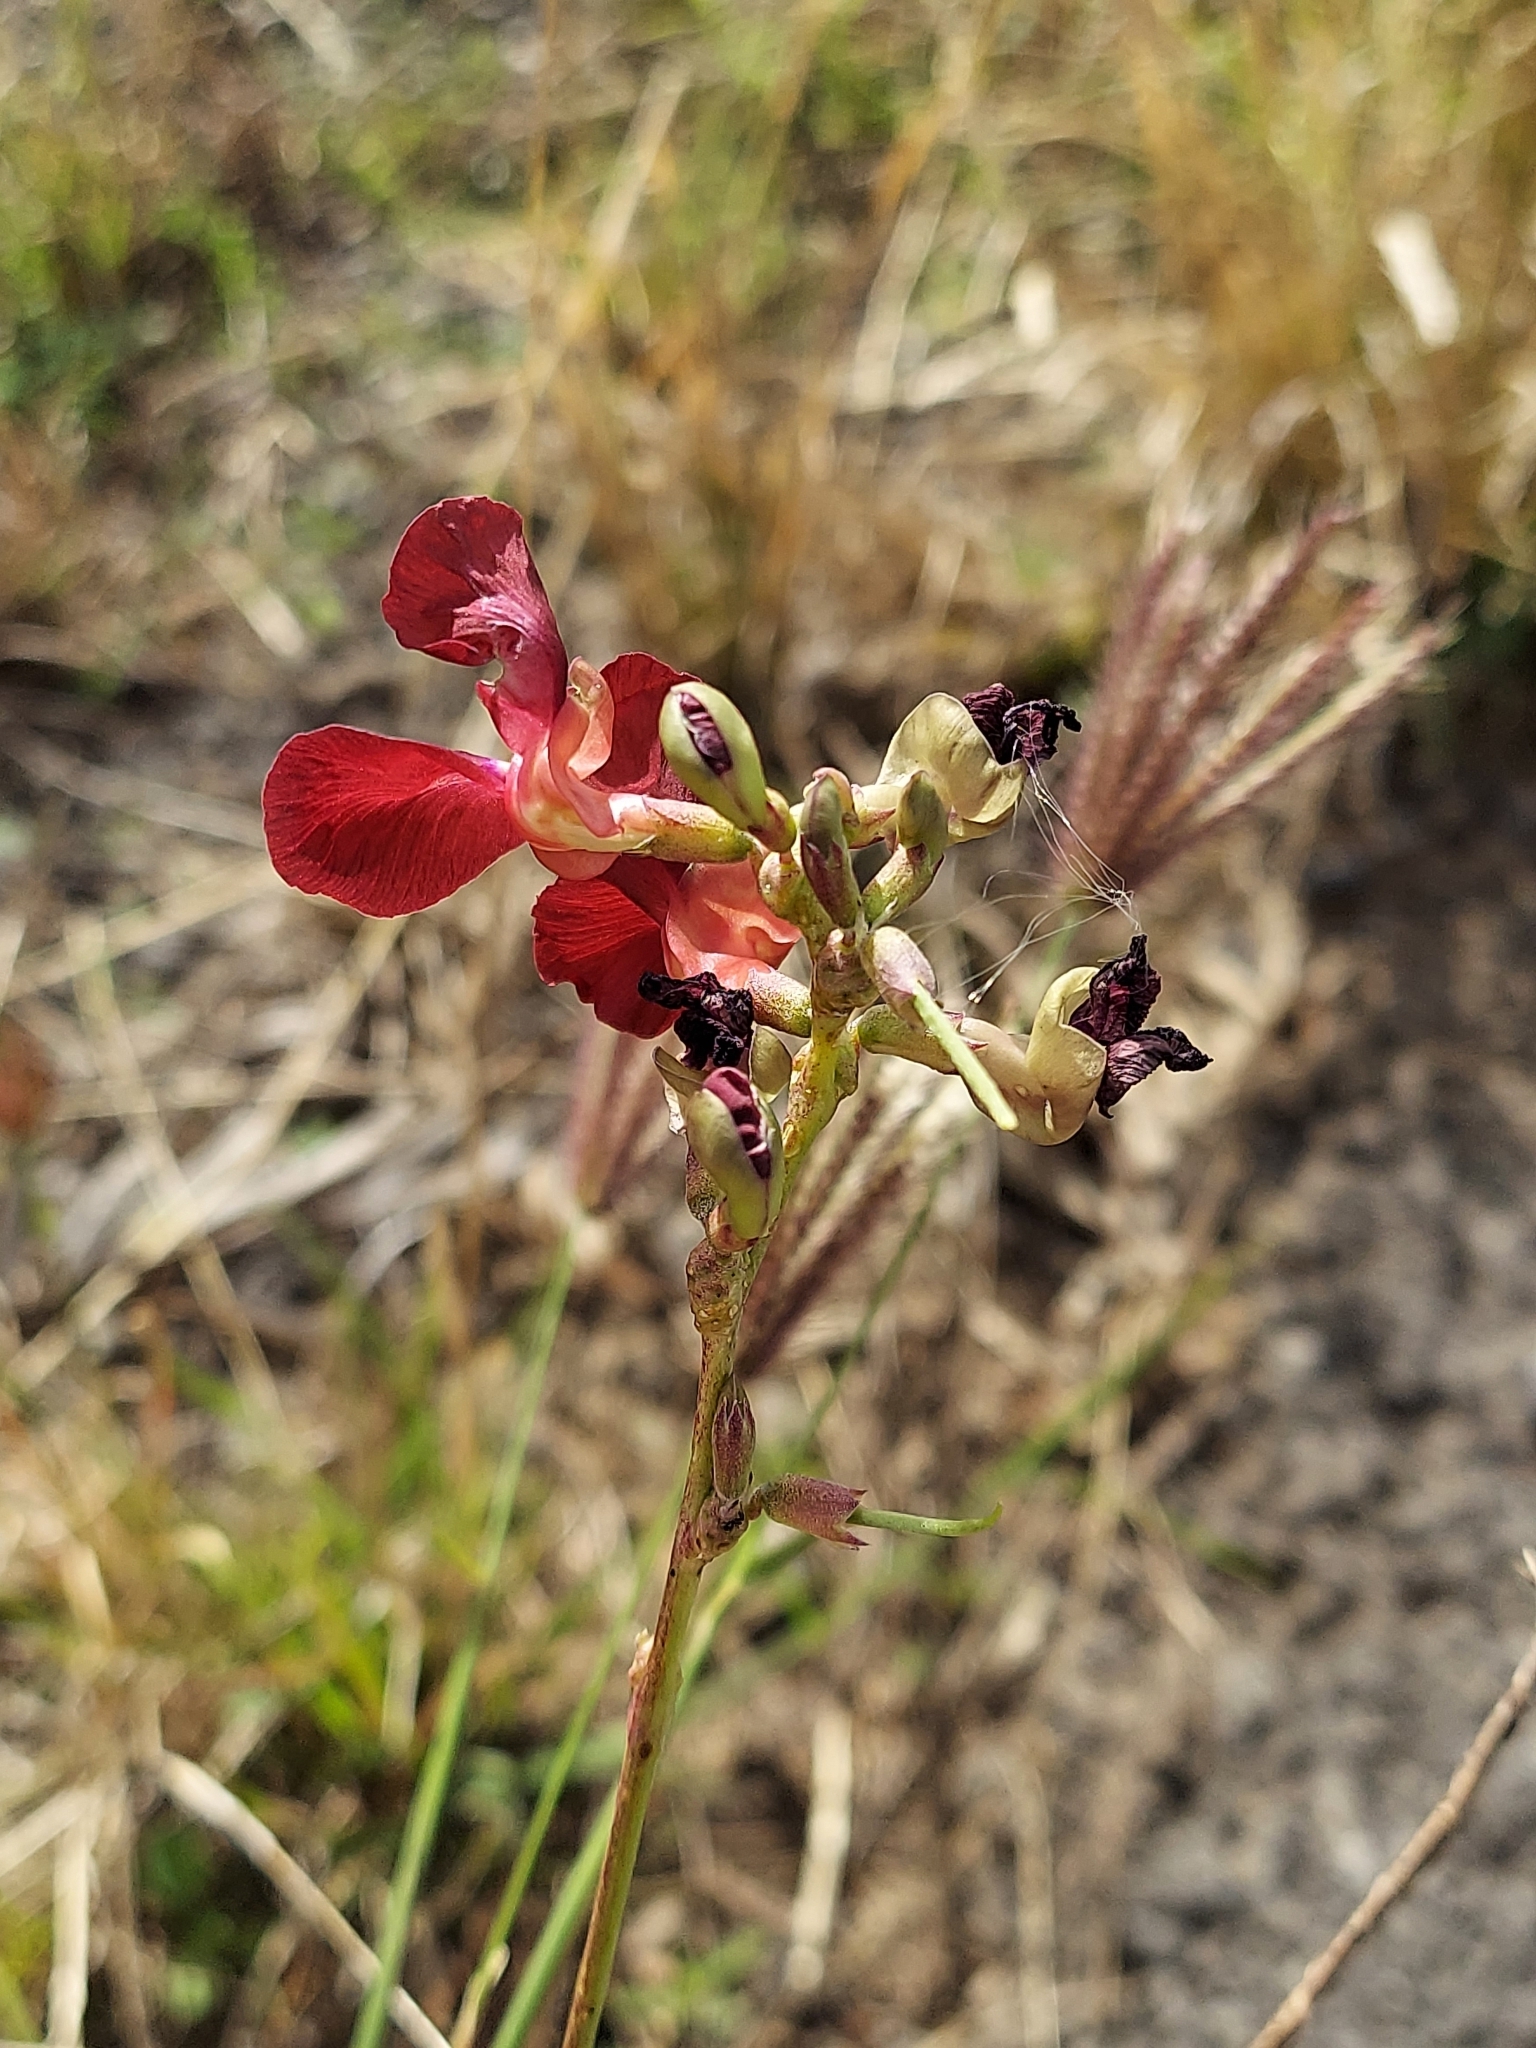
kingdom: Plantae
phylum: Tracheophyta
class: Magnoliopsida
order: Fabales
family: Fabaceae
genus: Macroptilium
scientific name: Macroptilium lathyroides
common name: Wild bushbean
